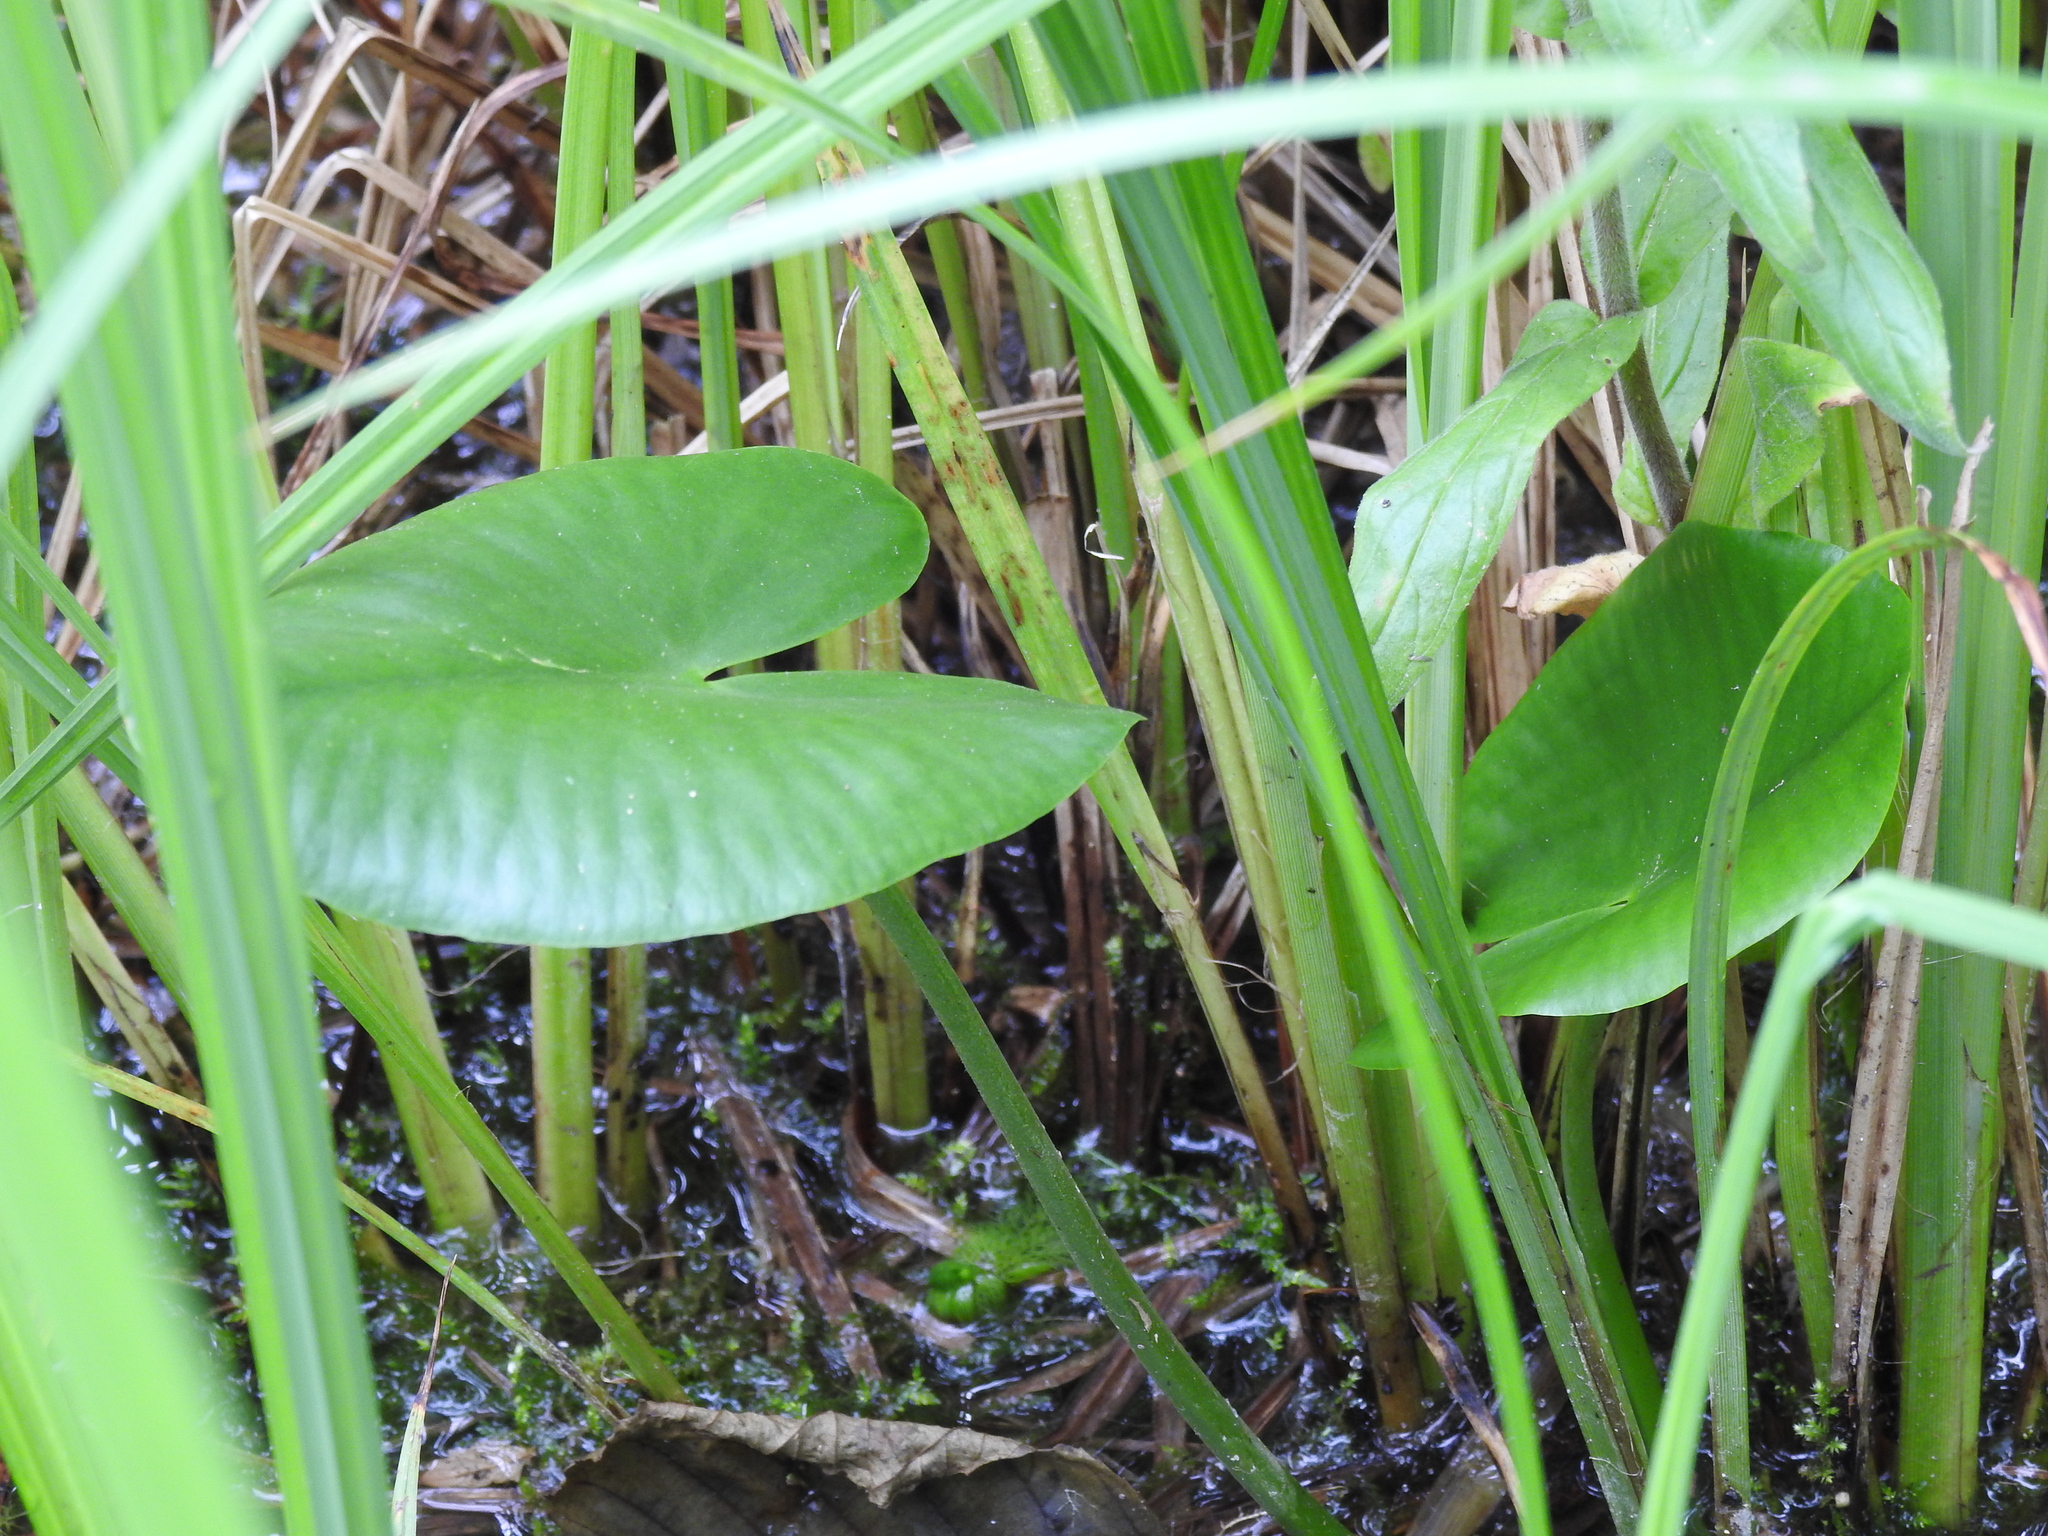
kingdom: Plantae
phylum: Tracheophyta
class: Magnoliopsida
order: Nymphaeales
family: Nymphaeaceae
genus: Nuphar
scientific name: Nuphar lutea
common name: Yellow water-lily
